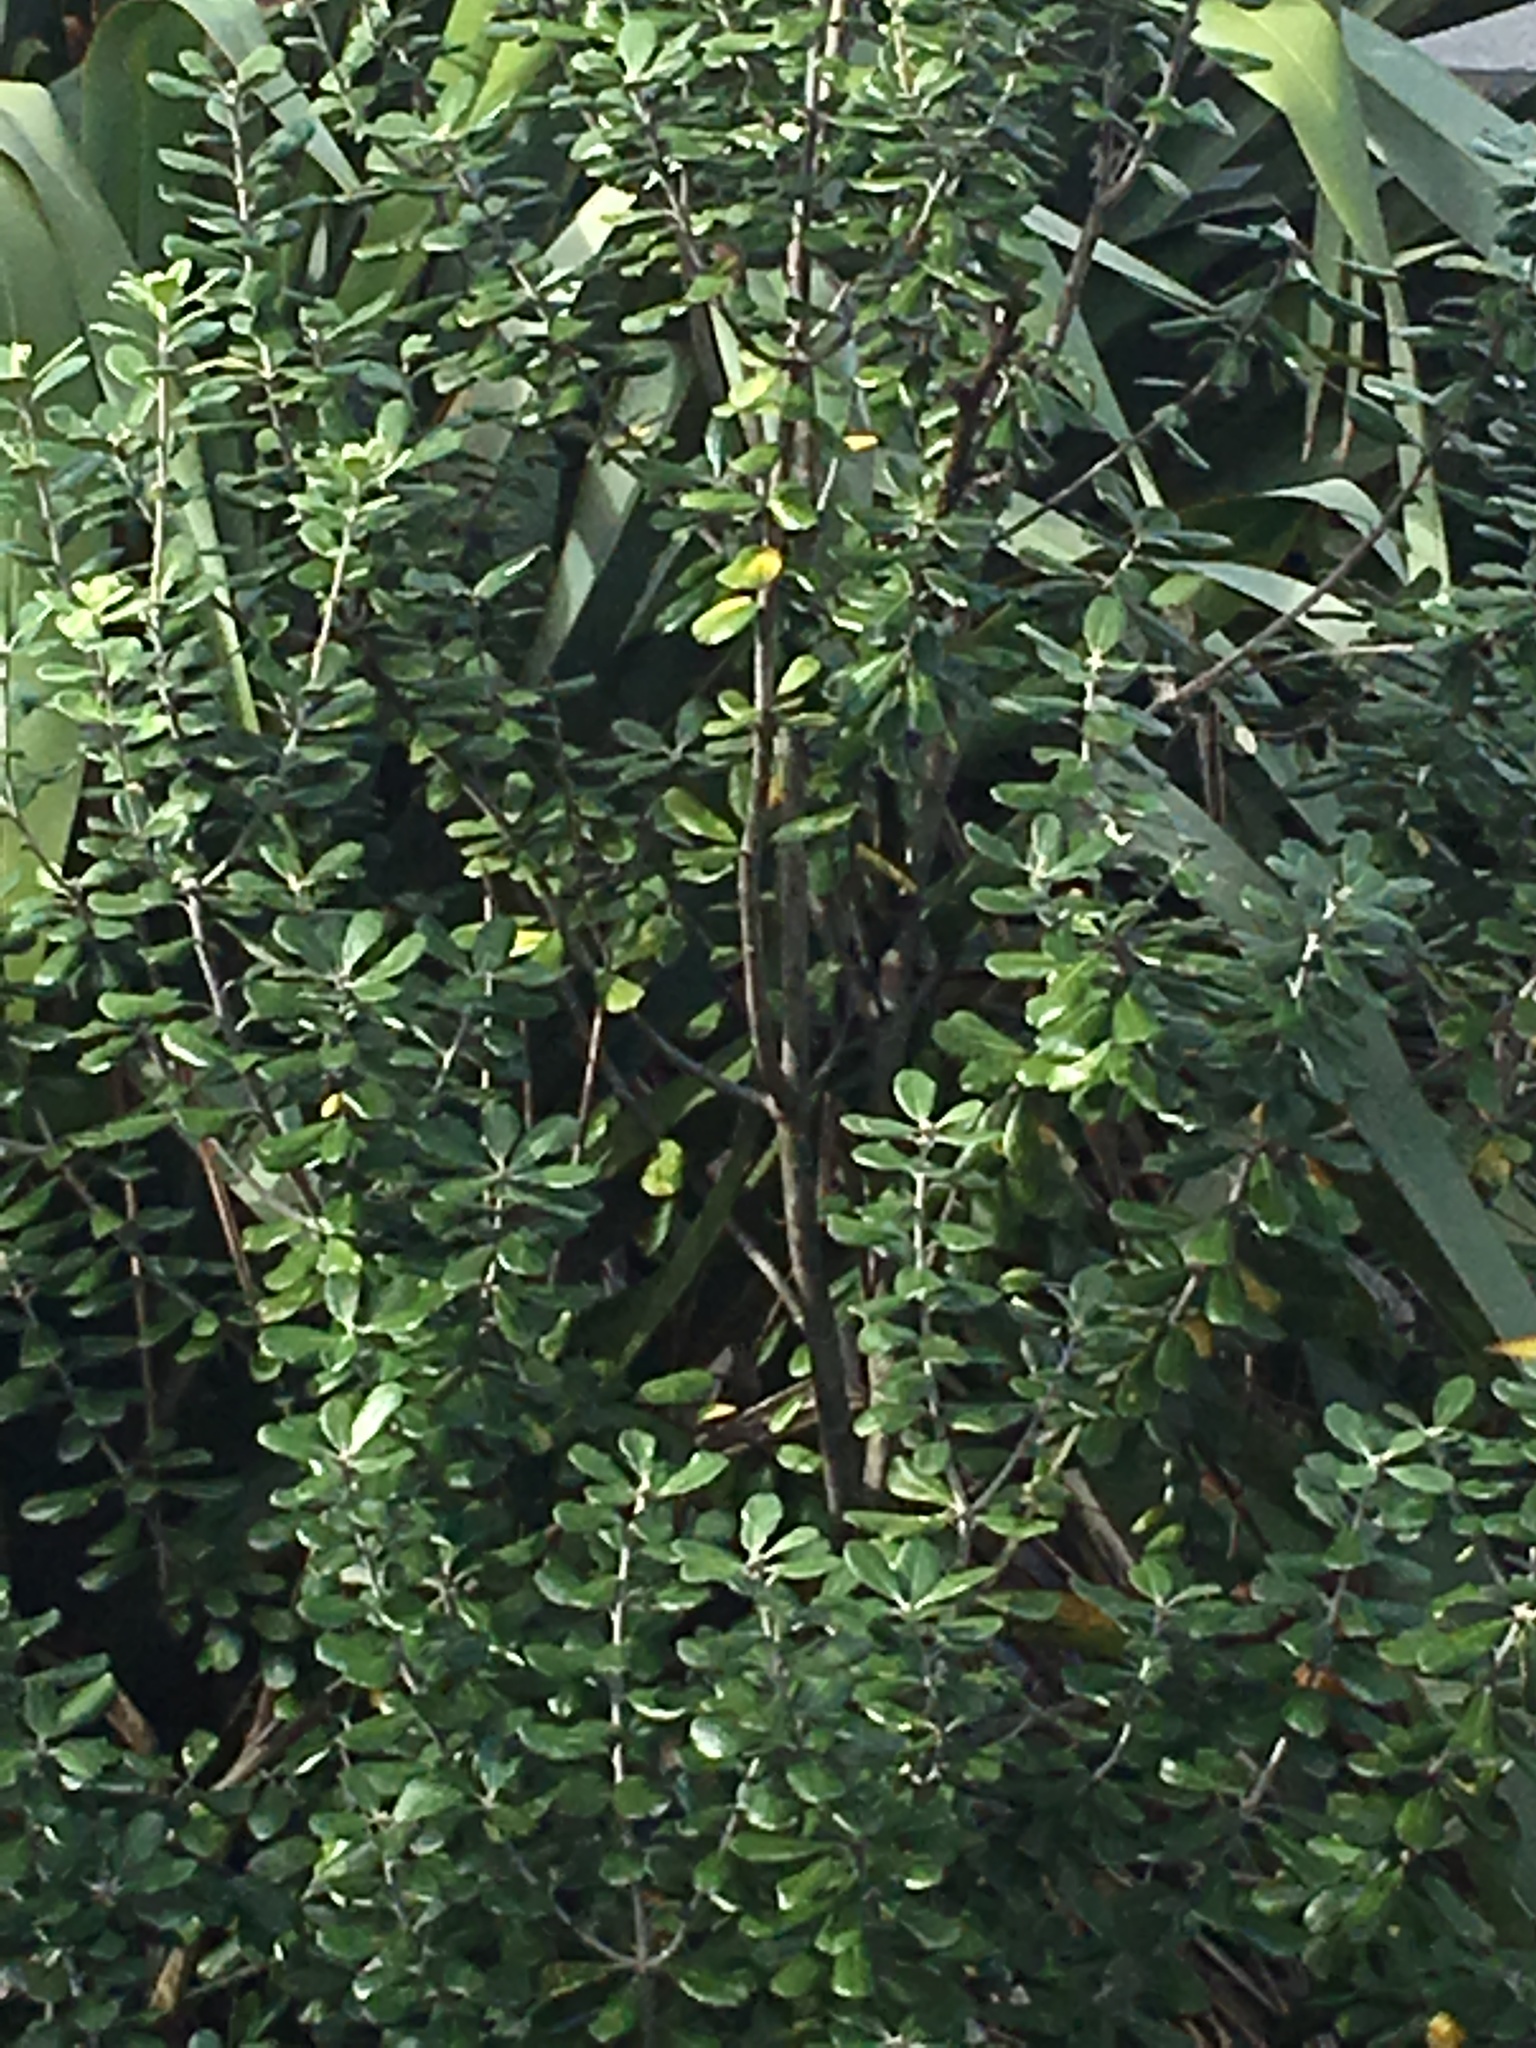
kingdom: Plantae
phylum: Tracheophyta
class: Magnoliopsida
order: Apiales
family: Pittosporaceae
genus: Pittosporum
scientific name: Pittosporum crassifolium
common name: Karo
